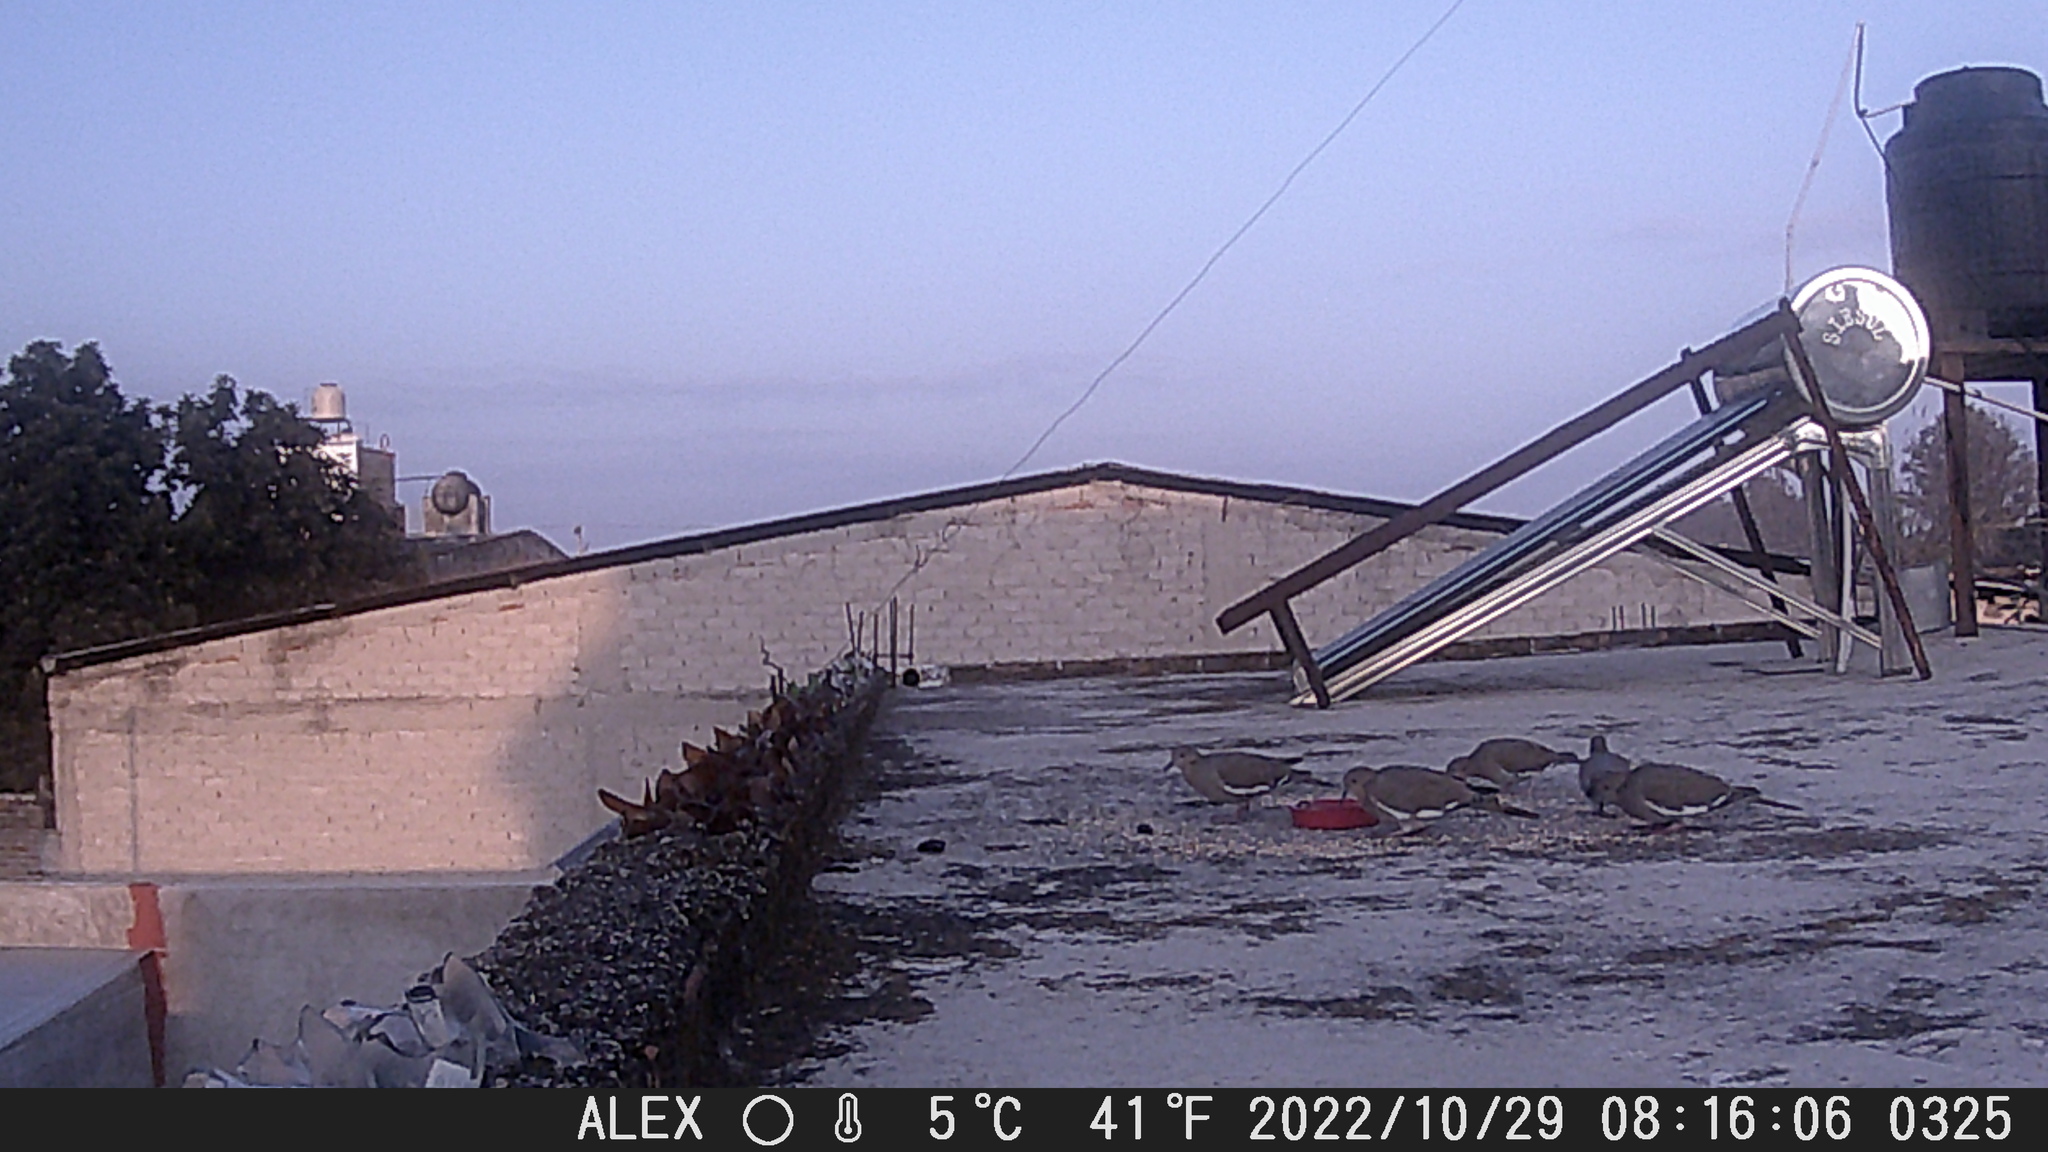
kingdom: Animalia
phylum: Chordata
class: Aves
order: Columbiformes
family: Columbidae
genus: Zenaida
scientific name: Zenaida asiatica
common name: White-winged dove
